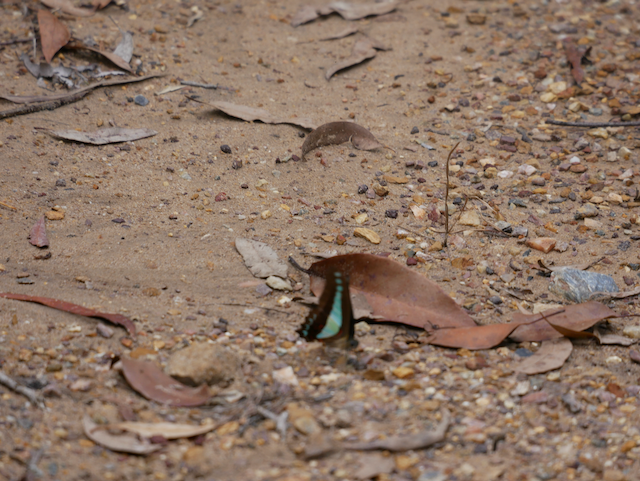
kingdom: Animalia
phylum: Arthropoda
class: Insecta
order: Lepidoptera
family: Papilionidae
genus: Graphium
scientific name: Graphium
